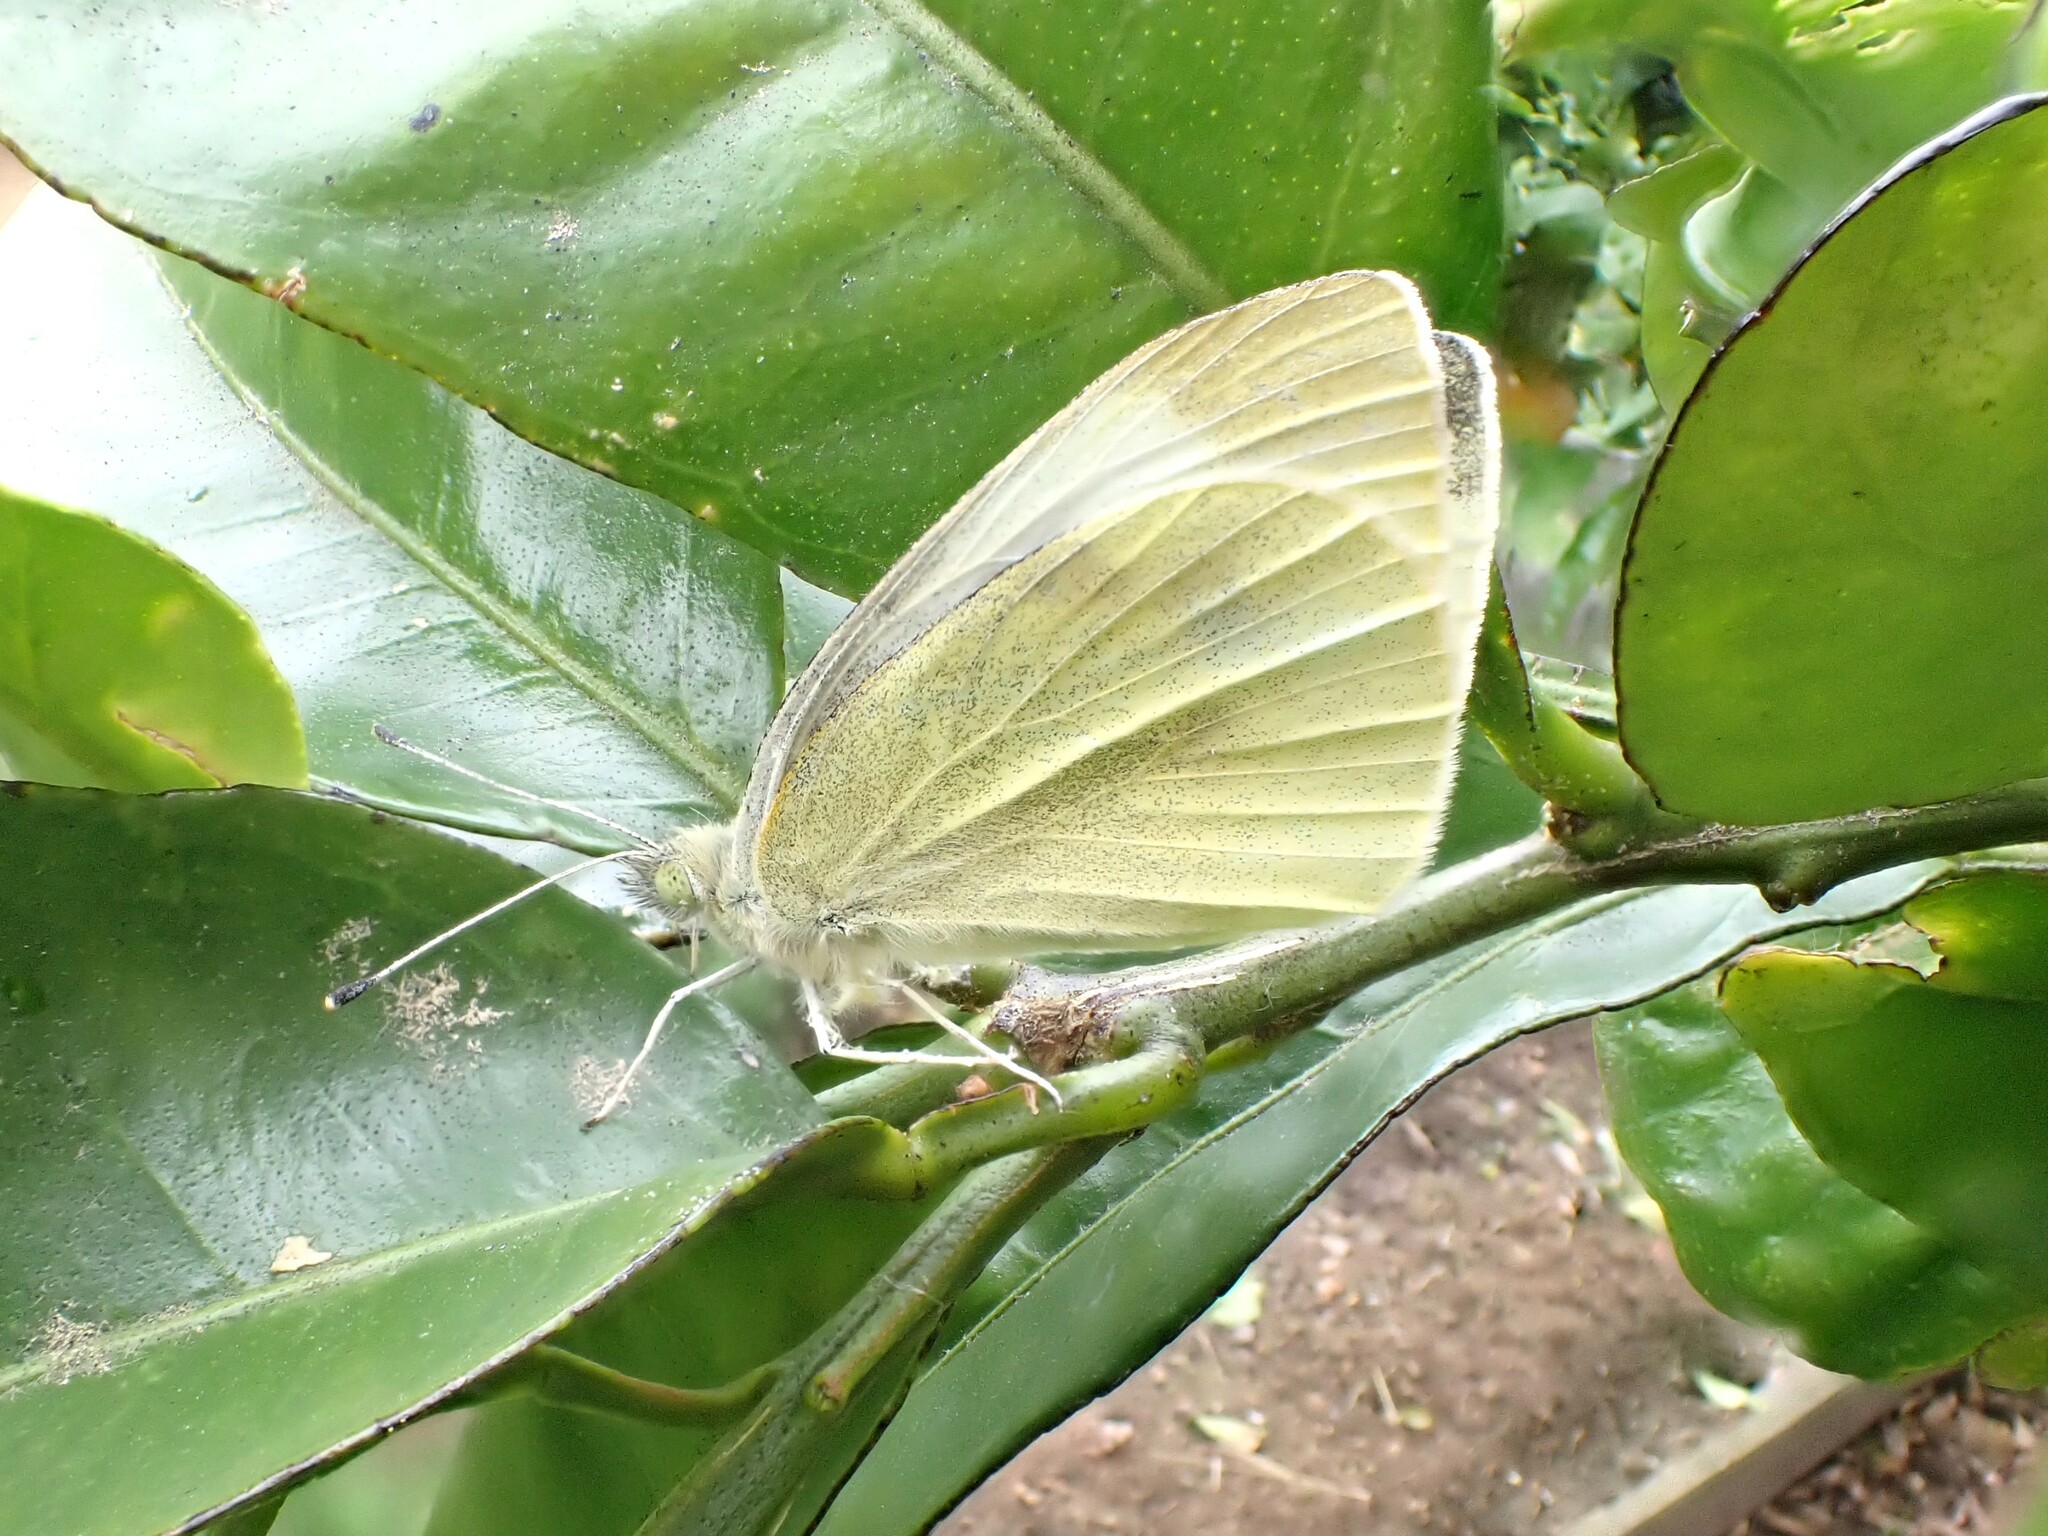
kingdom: Animalia
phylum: Arthropoda
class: Insecta
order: Lepidoptera
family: Pieridae
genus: Pieris
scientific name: Pieris rapae
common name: Small white
